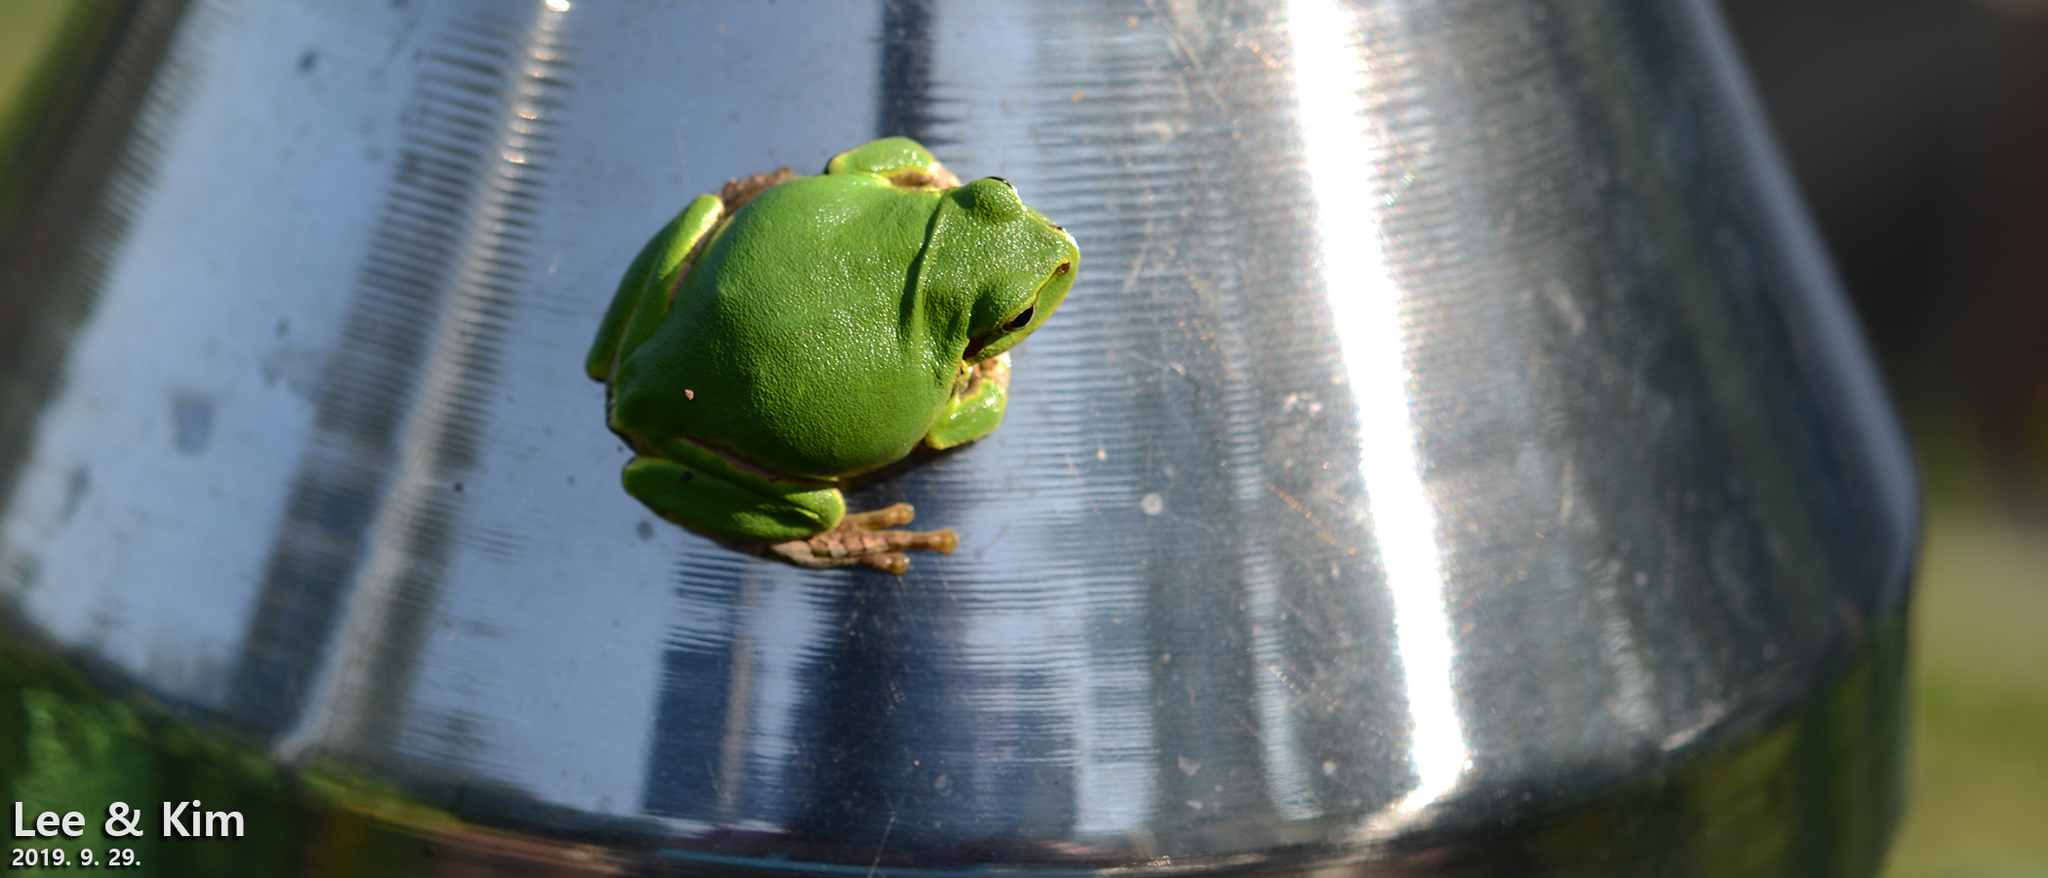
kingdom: Animalia
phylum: Chordata
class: Amphibia
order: Anura
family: Hylidae
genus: Dryophytes
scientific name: Dryophytes japonicus
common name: Japanese treefrog
